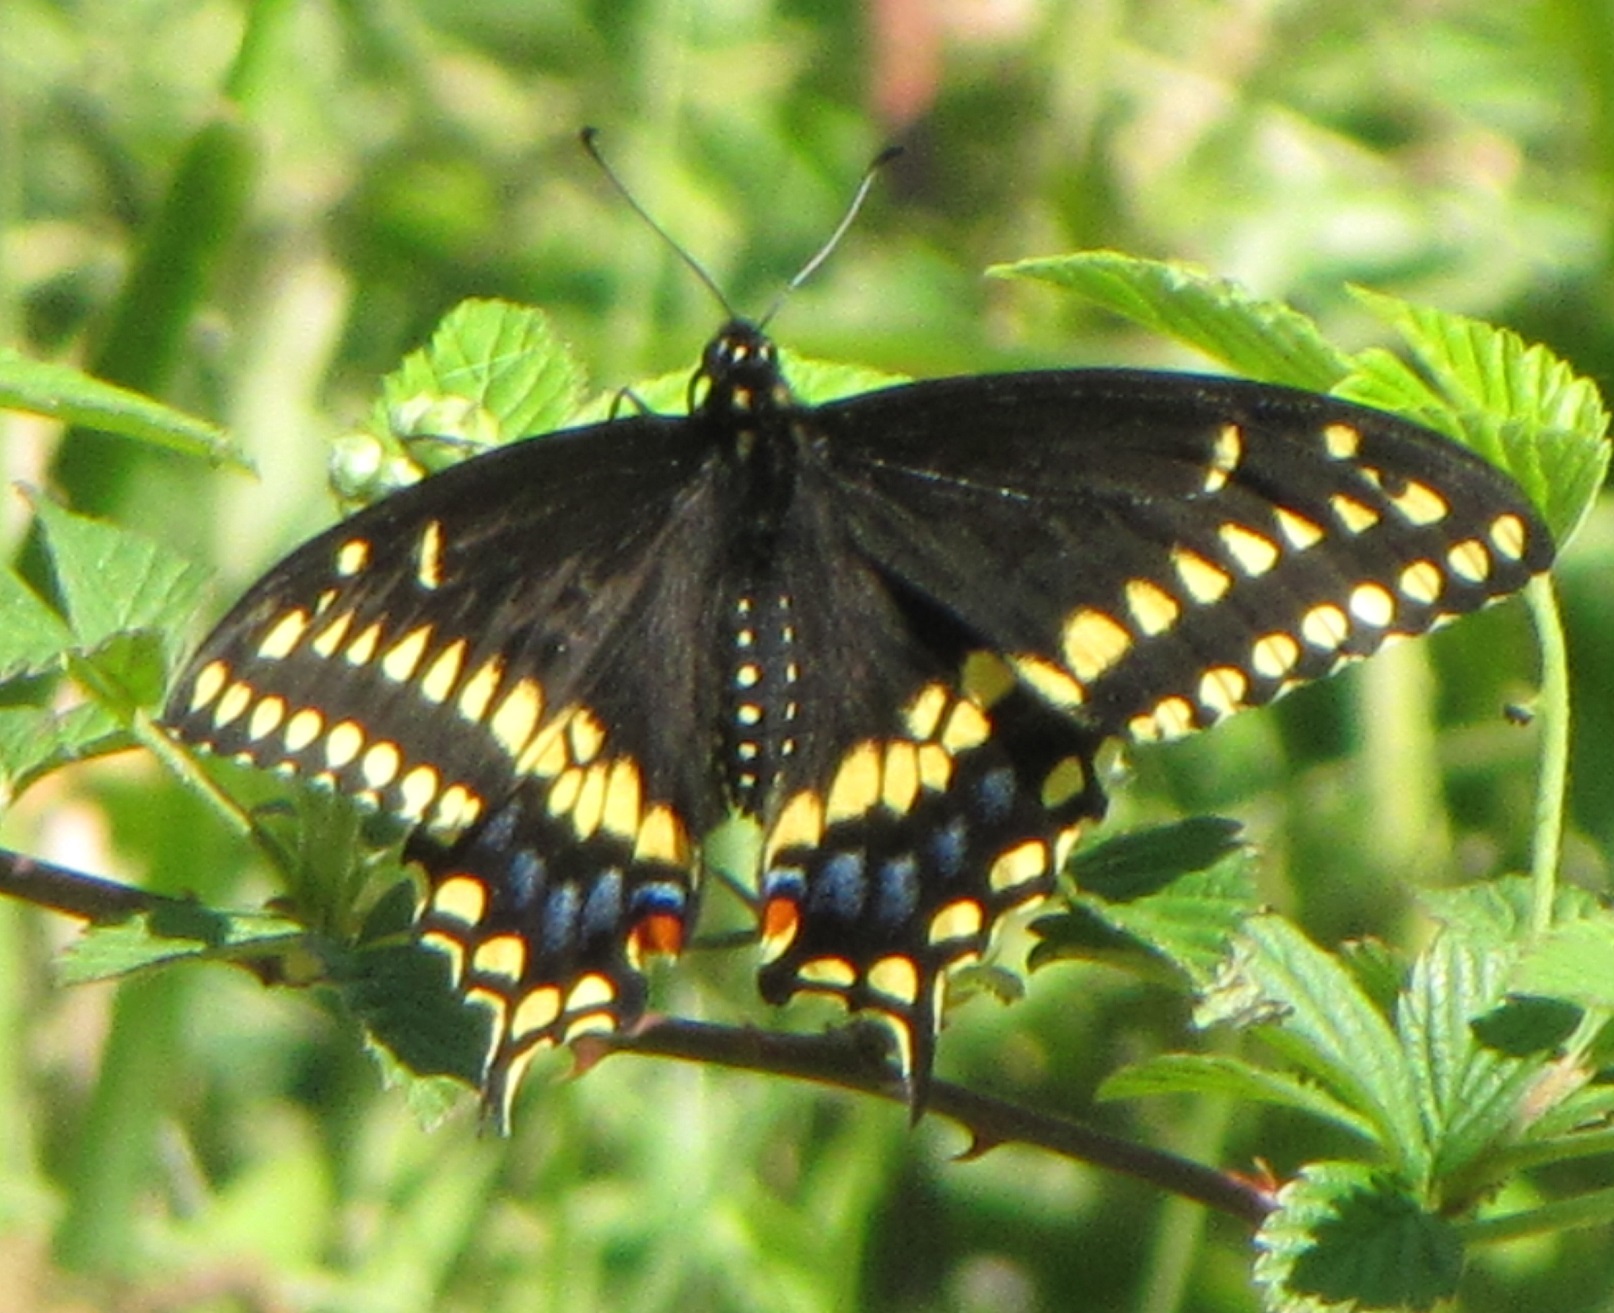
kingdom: Animalia
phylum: Arthropoda
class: Insecta
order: Lepidoptera
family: Papilionidae
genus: Papilio
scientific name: Papilio polyxenes
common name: Black swallowtail
